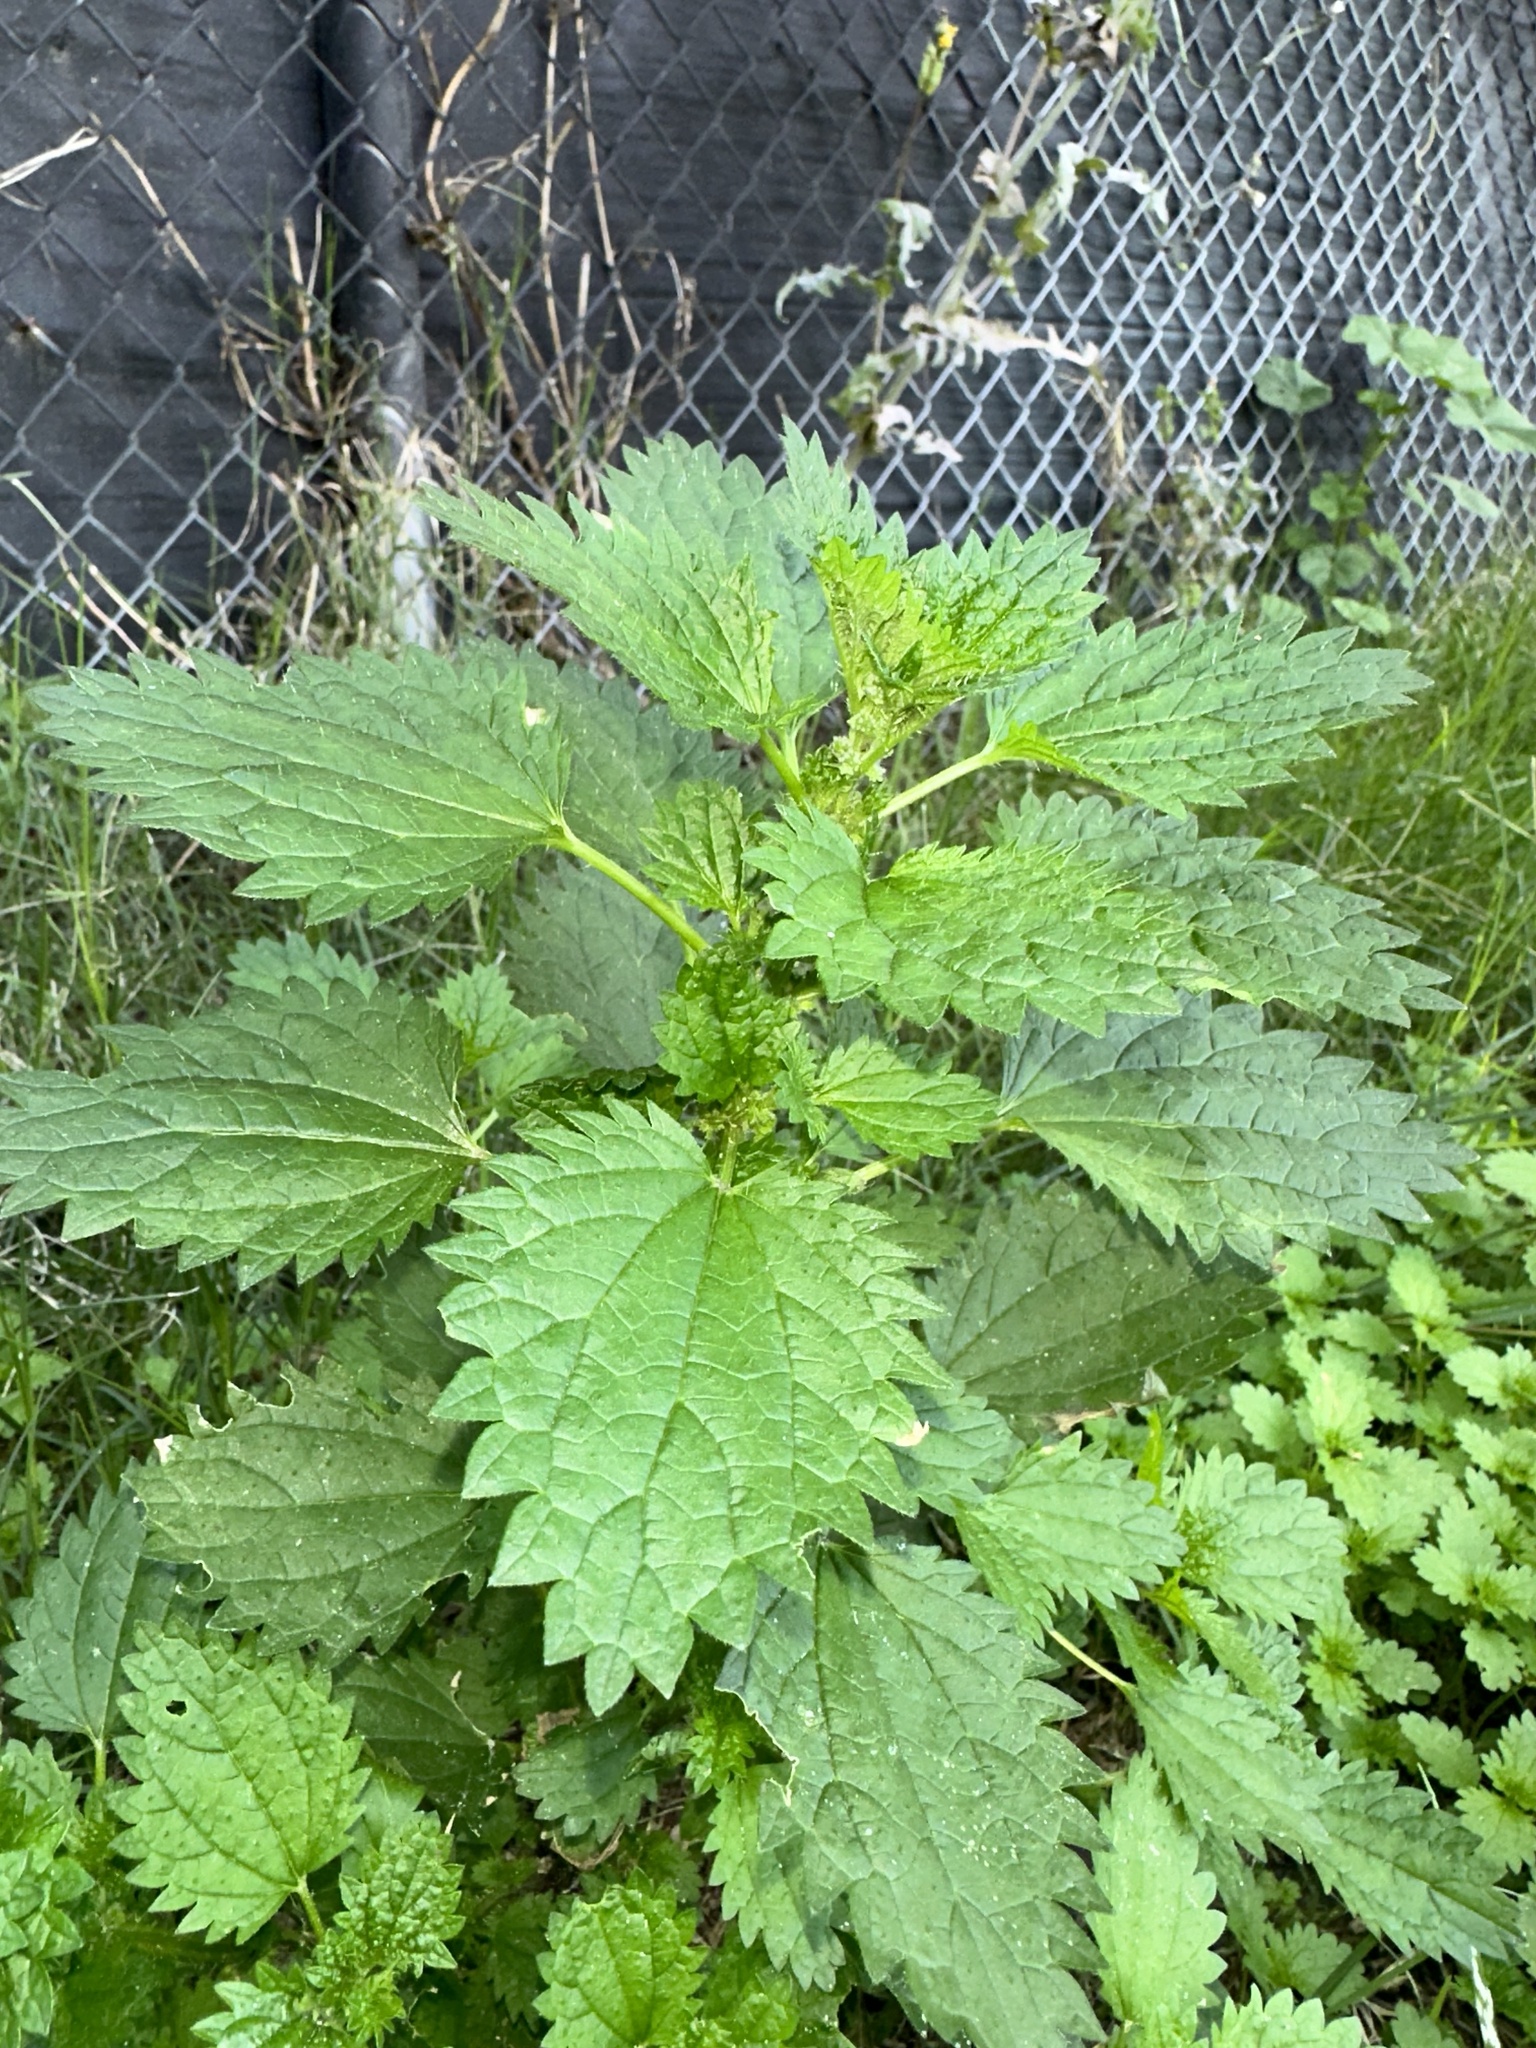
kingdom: Plantae
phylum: Tracheophyta
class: Magnoliopsida
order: Rosales
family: Urticaceae
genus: Urtica
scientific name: Urtica dioica
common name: Common nettle
